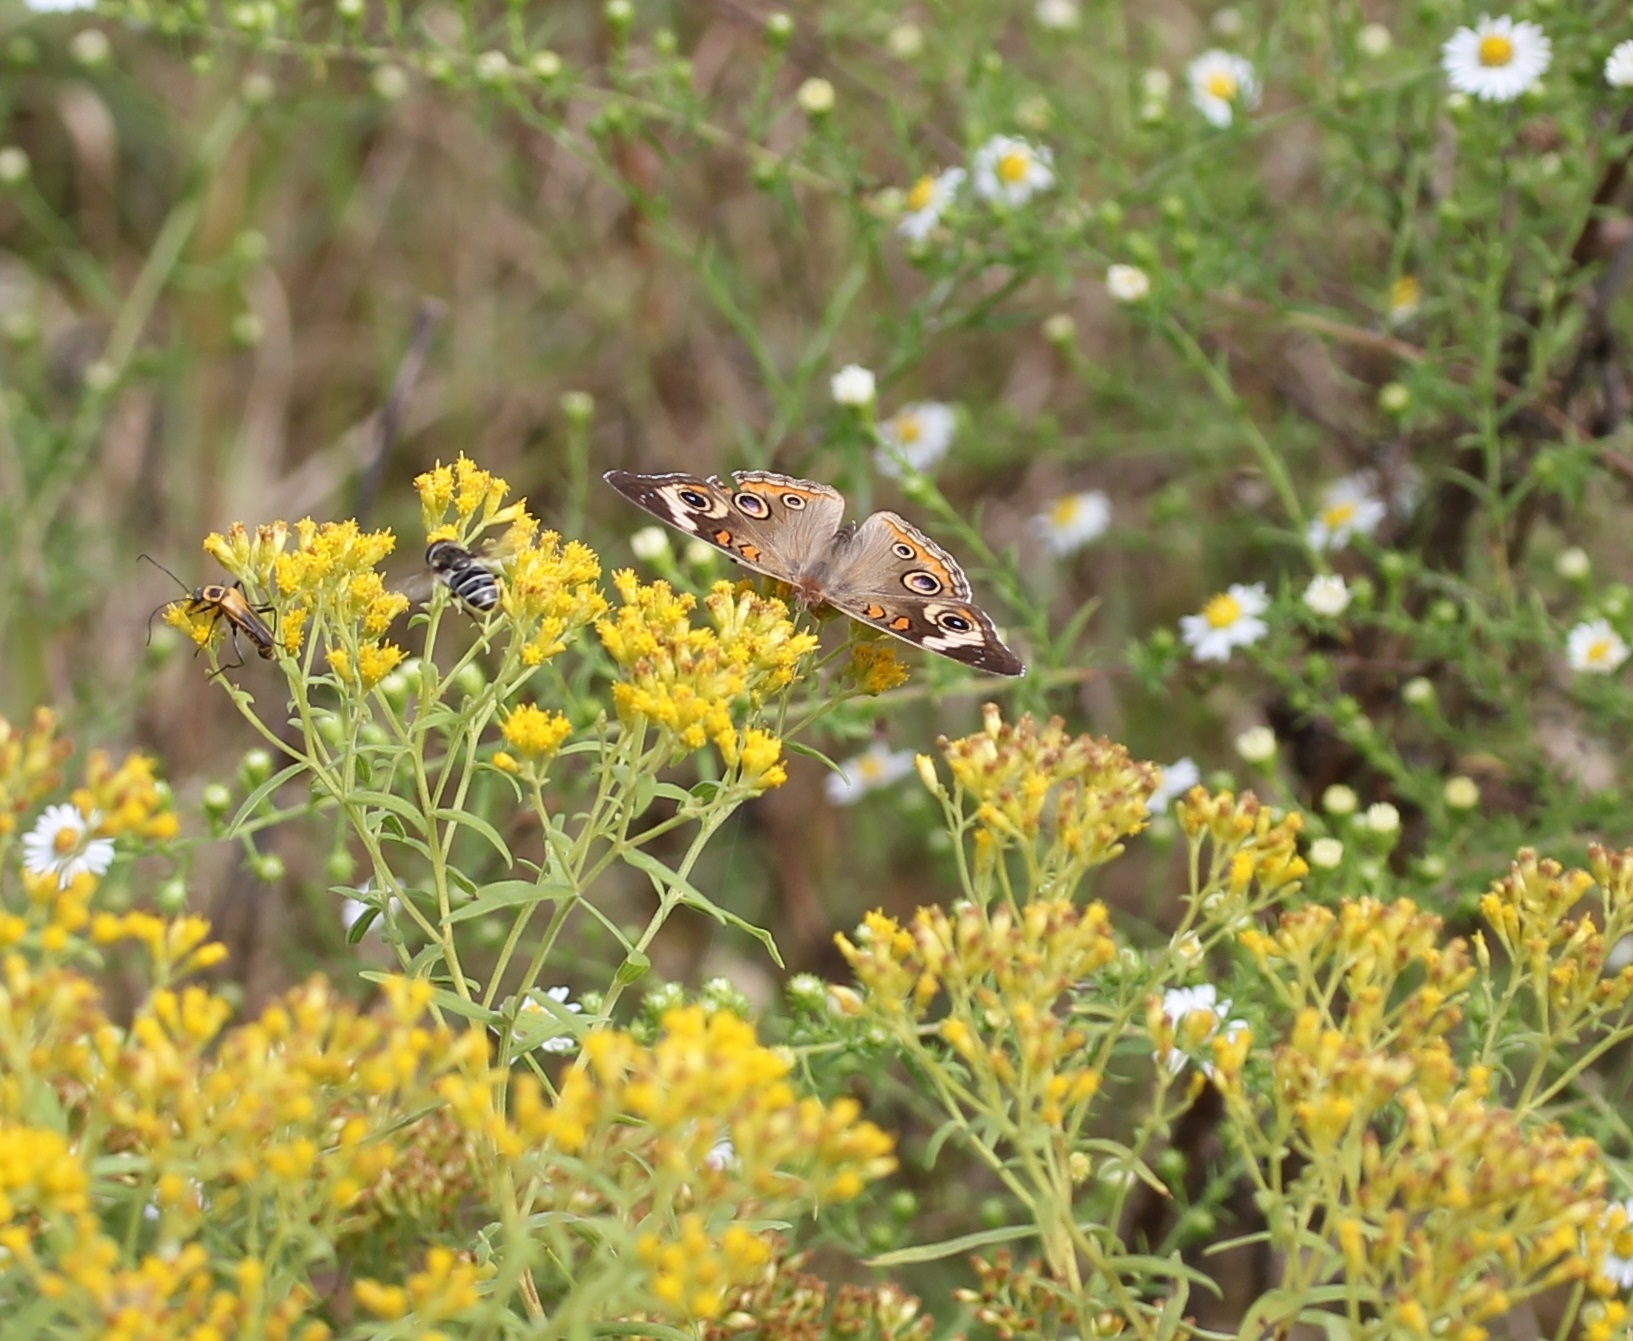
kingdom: Animalia
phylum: Arthropoda
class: Insecta
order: Lepidoptera
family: Nymphalidae
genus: Junonia
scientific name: Junonia coenia
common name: Common buckeye
